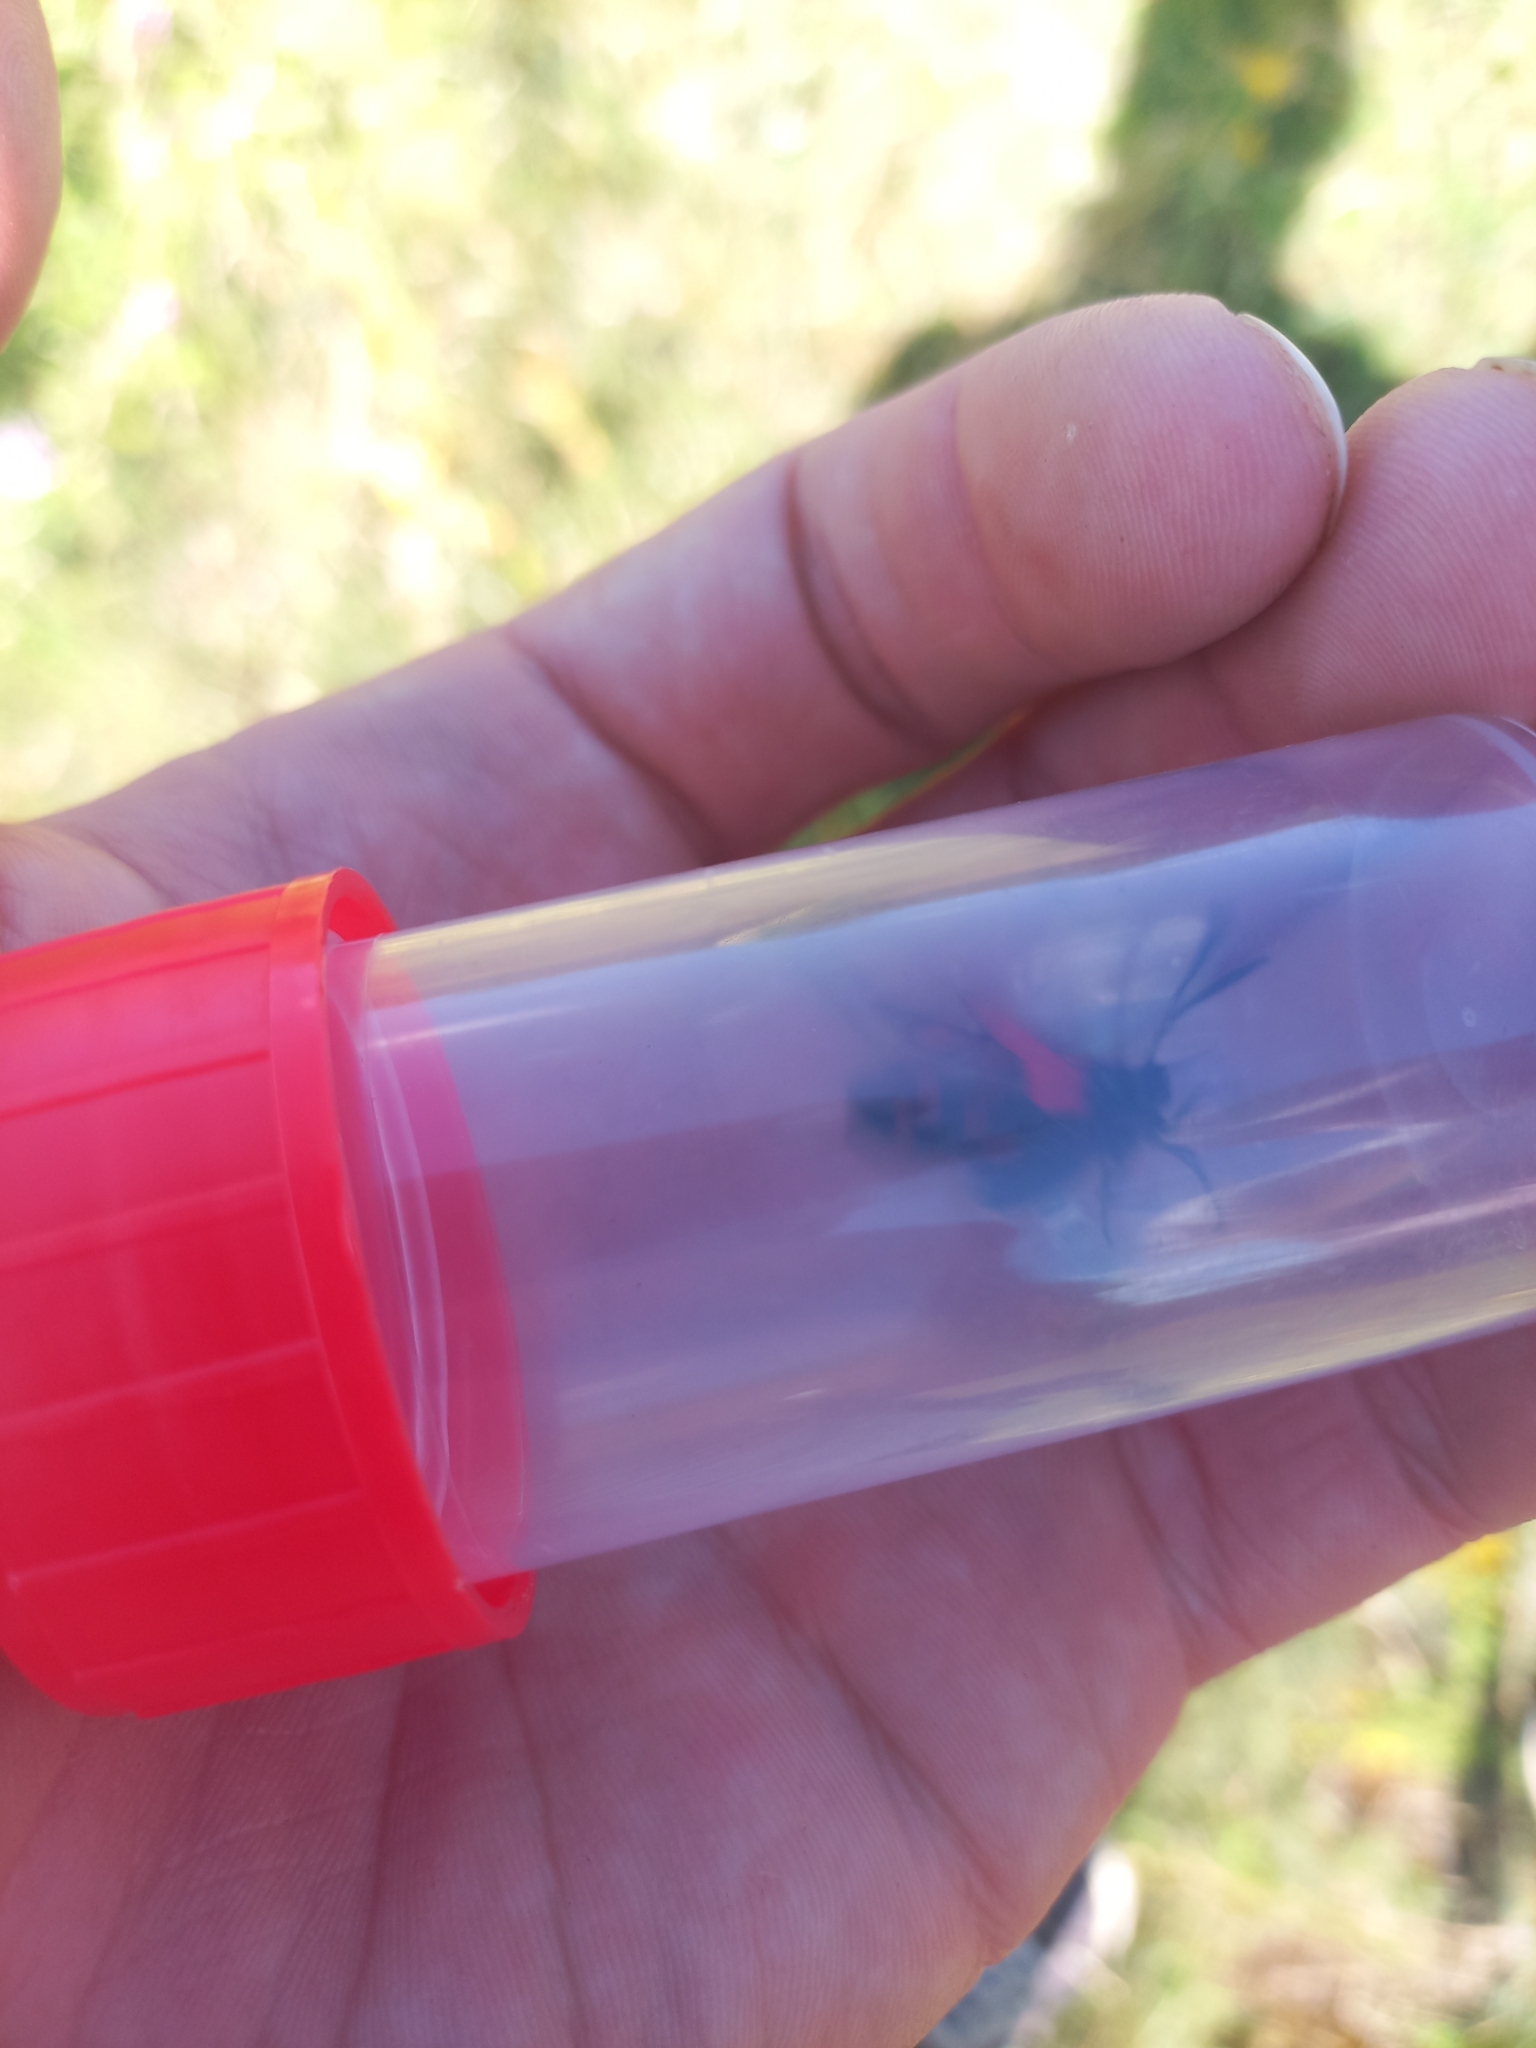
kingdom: Animalia
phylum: Arthropoda
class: Insecta
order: Lepidoptera
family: Zygaenidae
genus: Zygaena
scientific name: Zygaena filipendulae
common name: Six-spot burnet
